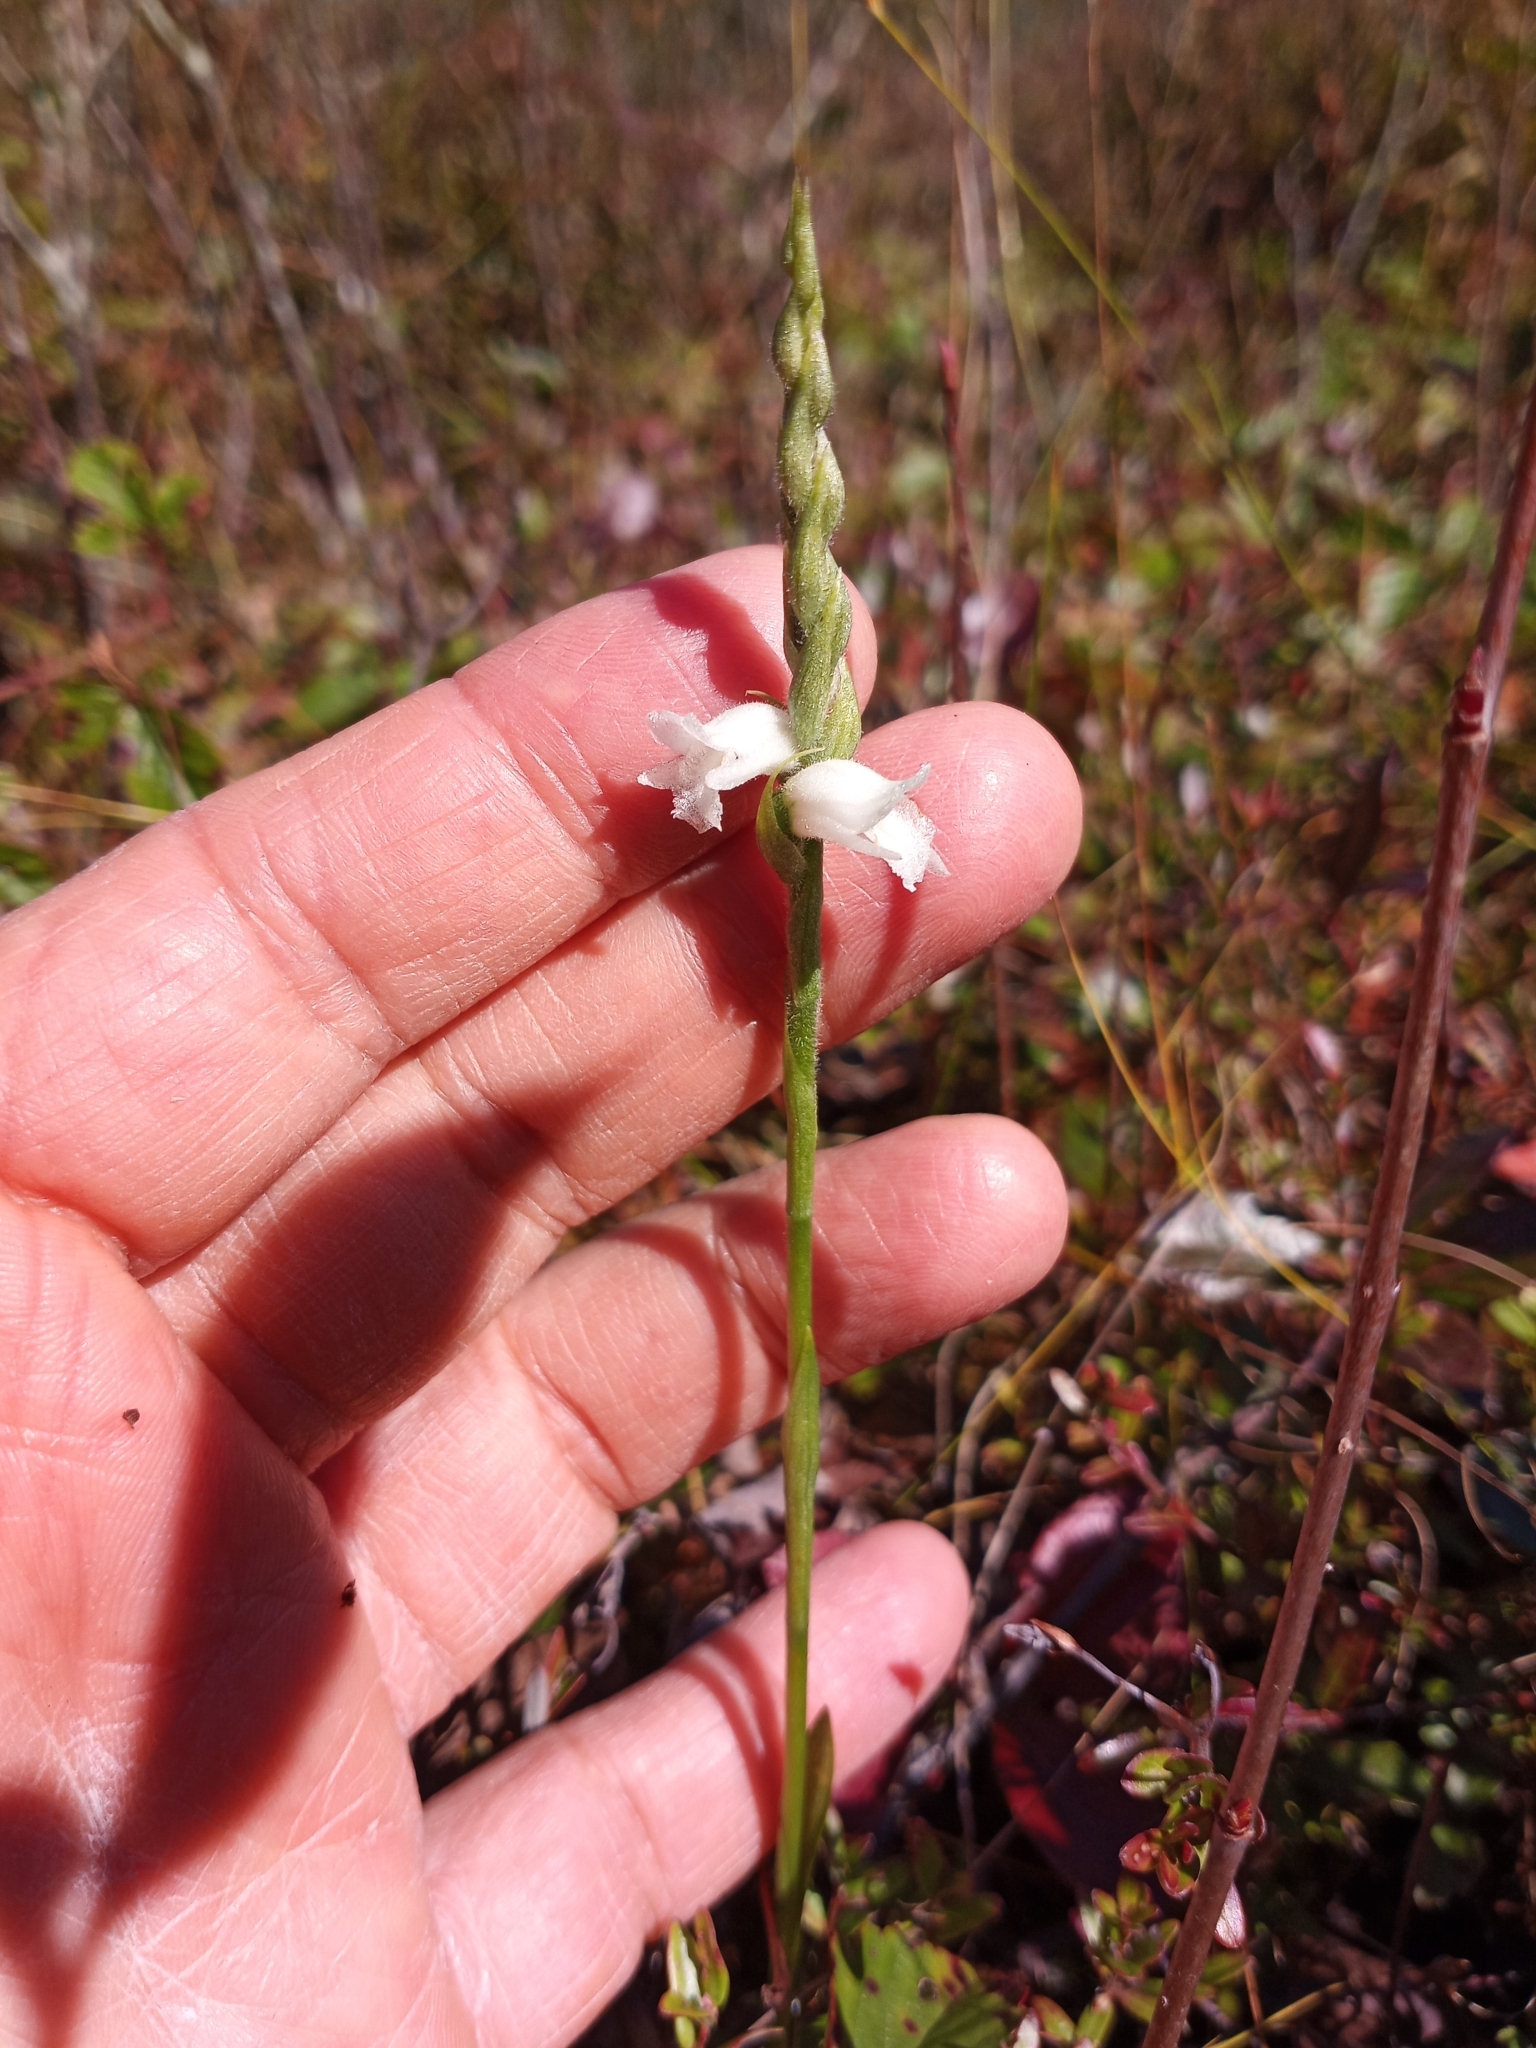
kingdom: Plantae
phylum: Tracheophyta
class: Liliopsida
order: Asparagales
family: Orchidaceae
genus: Spiranthes
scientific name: Spiranthes arcisepala
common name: Appalachian ladies'-tresses
